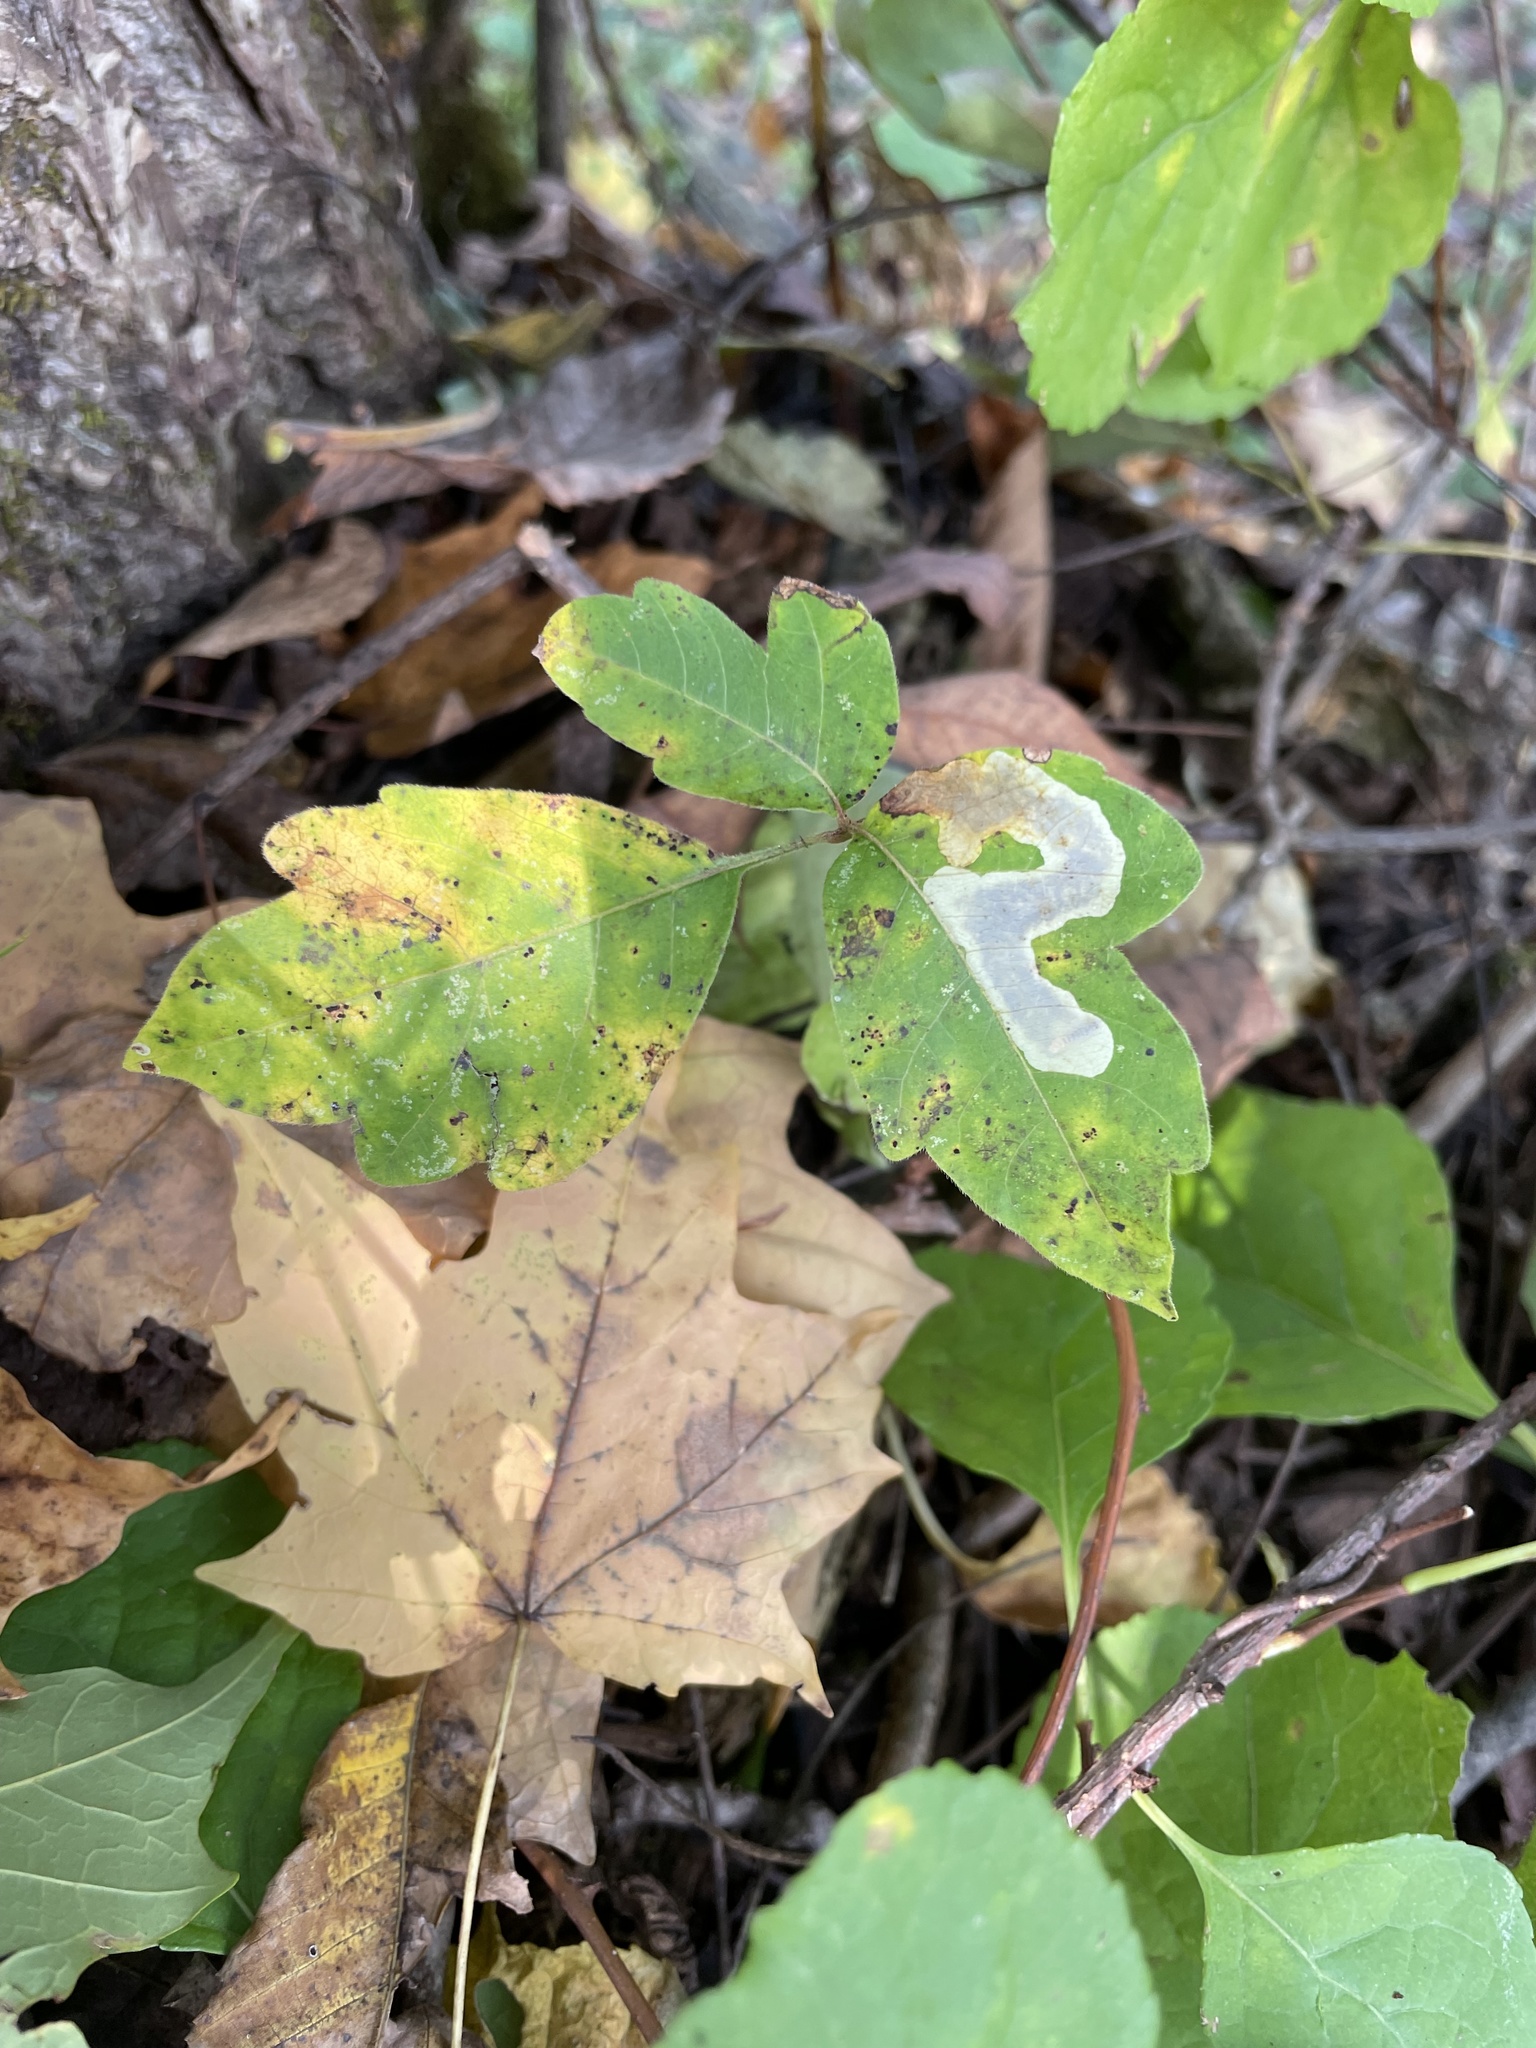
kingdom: Plantae
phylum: Tracheophyta
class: Magnoliopsida
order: Sapindales
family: Anacardiaceae
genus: Toxicodendron
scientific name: Toxicodendron radicans
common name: Poison ivy
